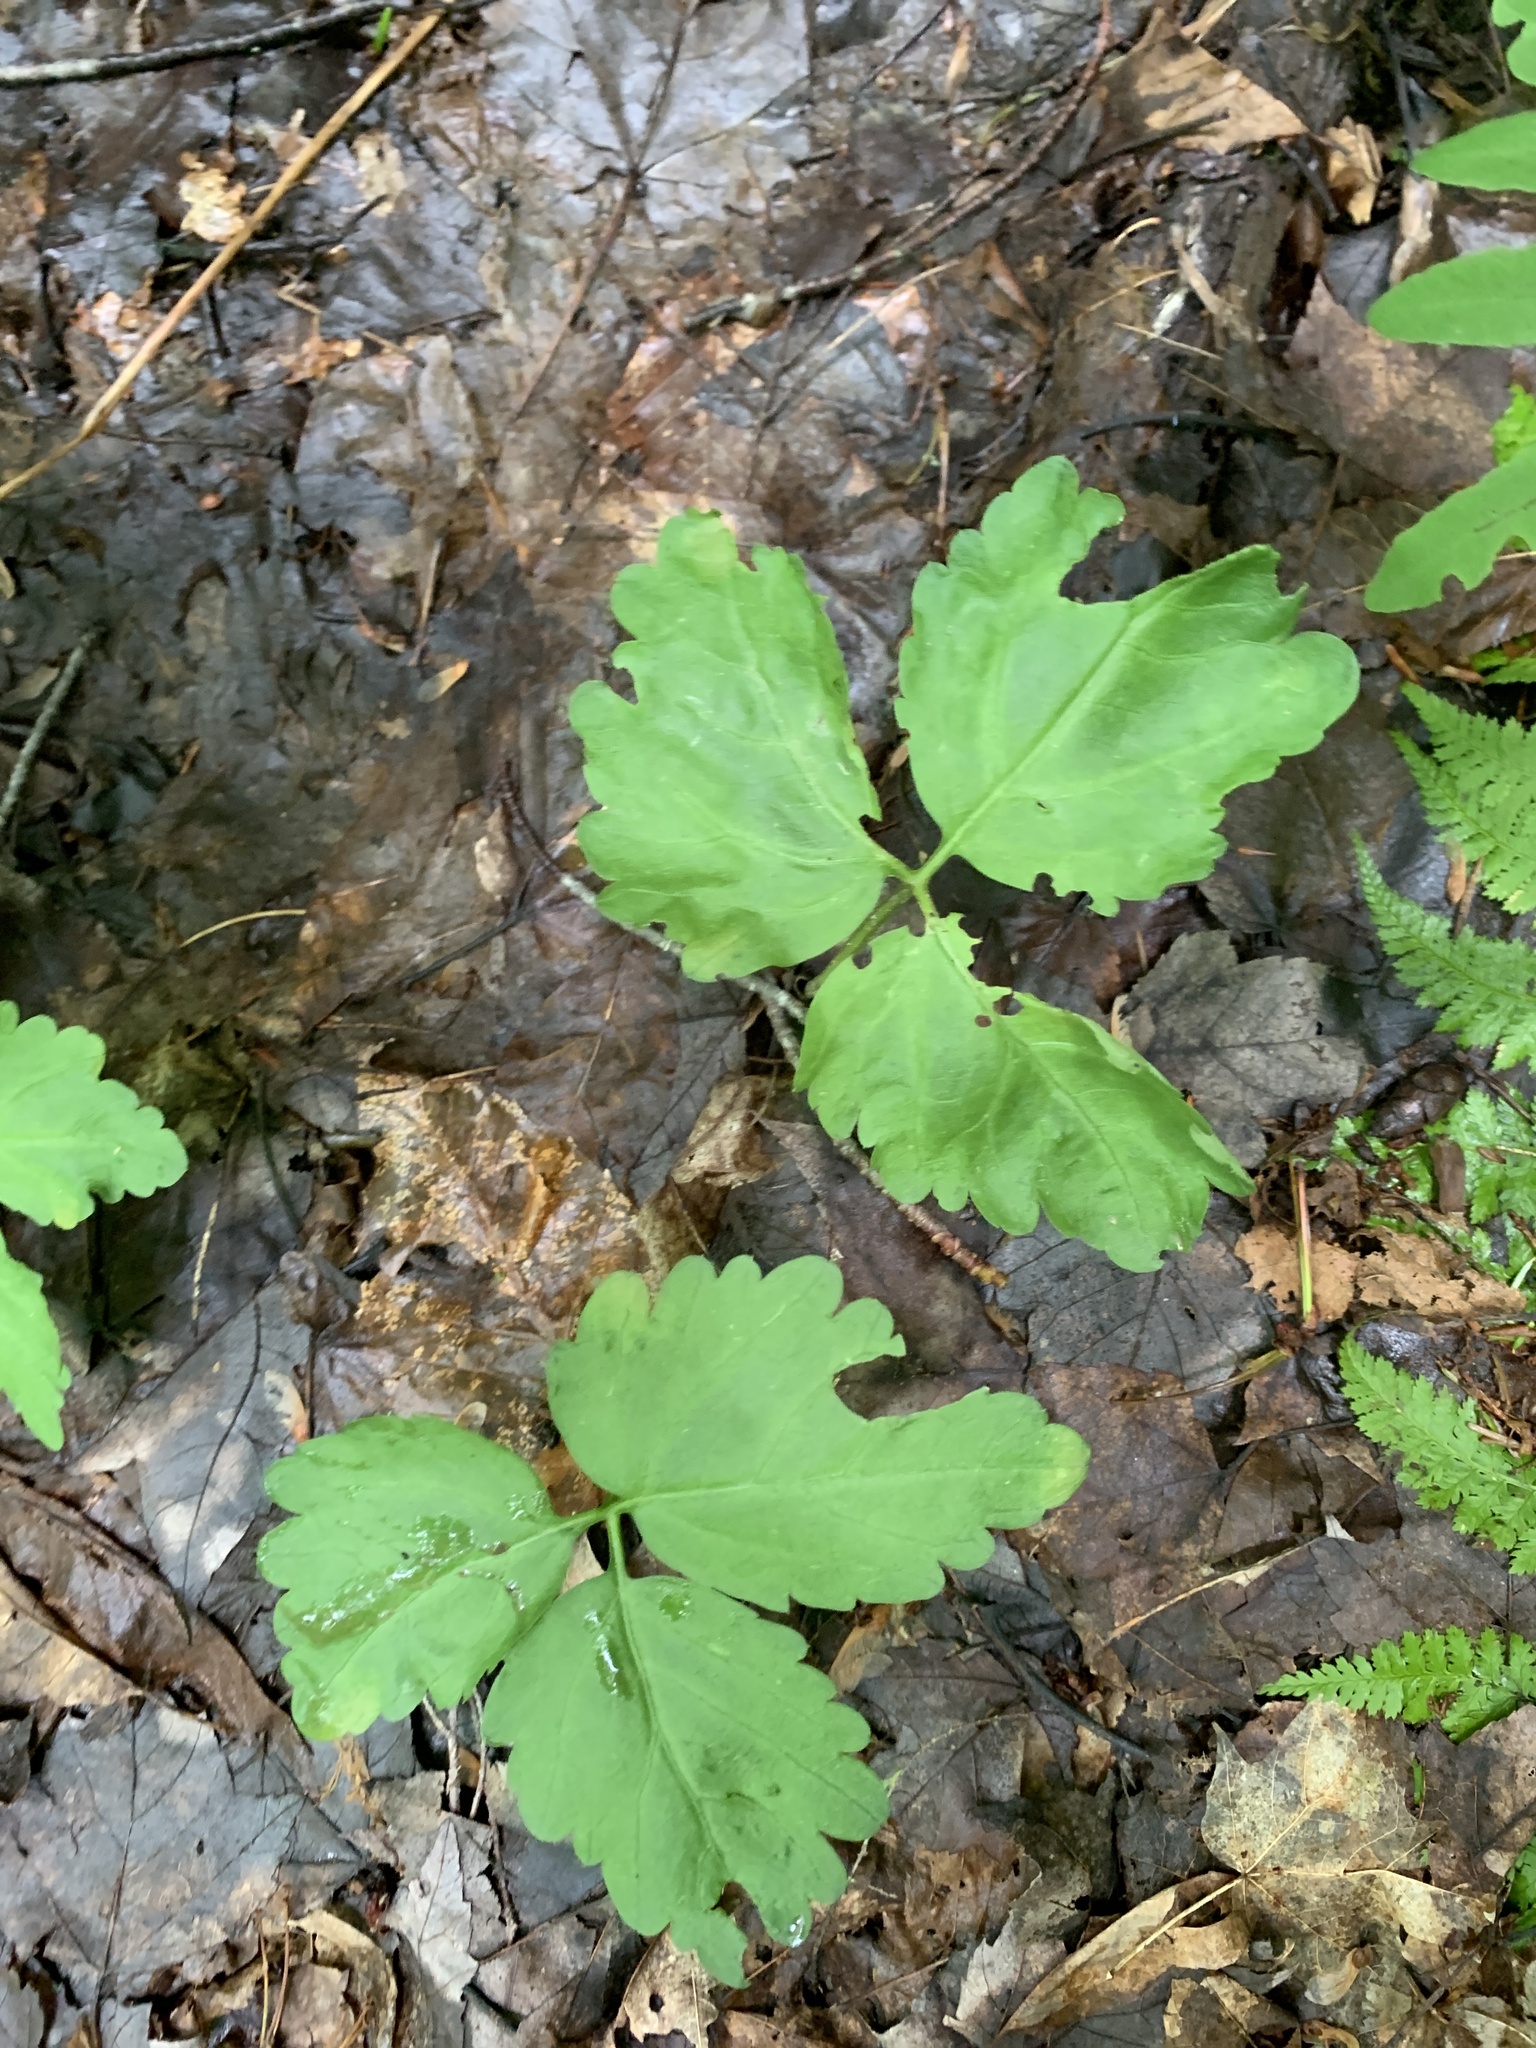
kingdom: Plantae
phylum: Tracheophyta
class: Magnoliopsida
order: Brassicales
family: Brassicaceae
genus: Cardamine
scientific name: Cardamine diphylla
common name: Broad-leaved toothwort
